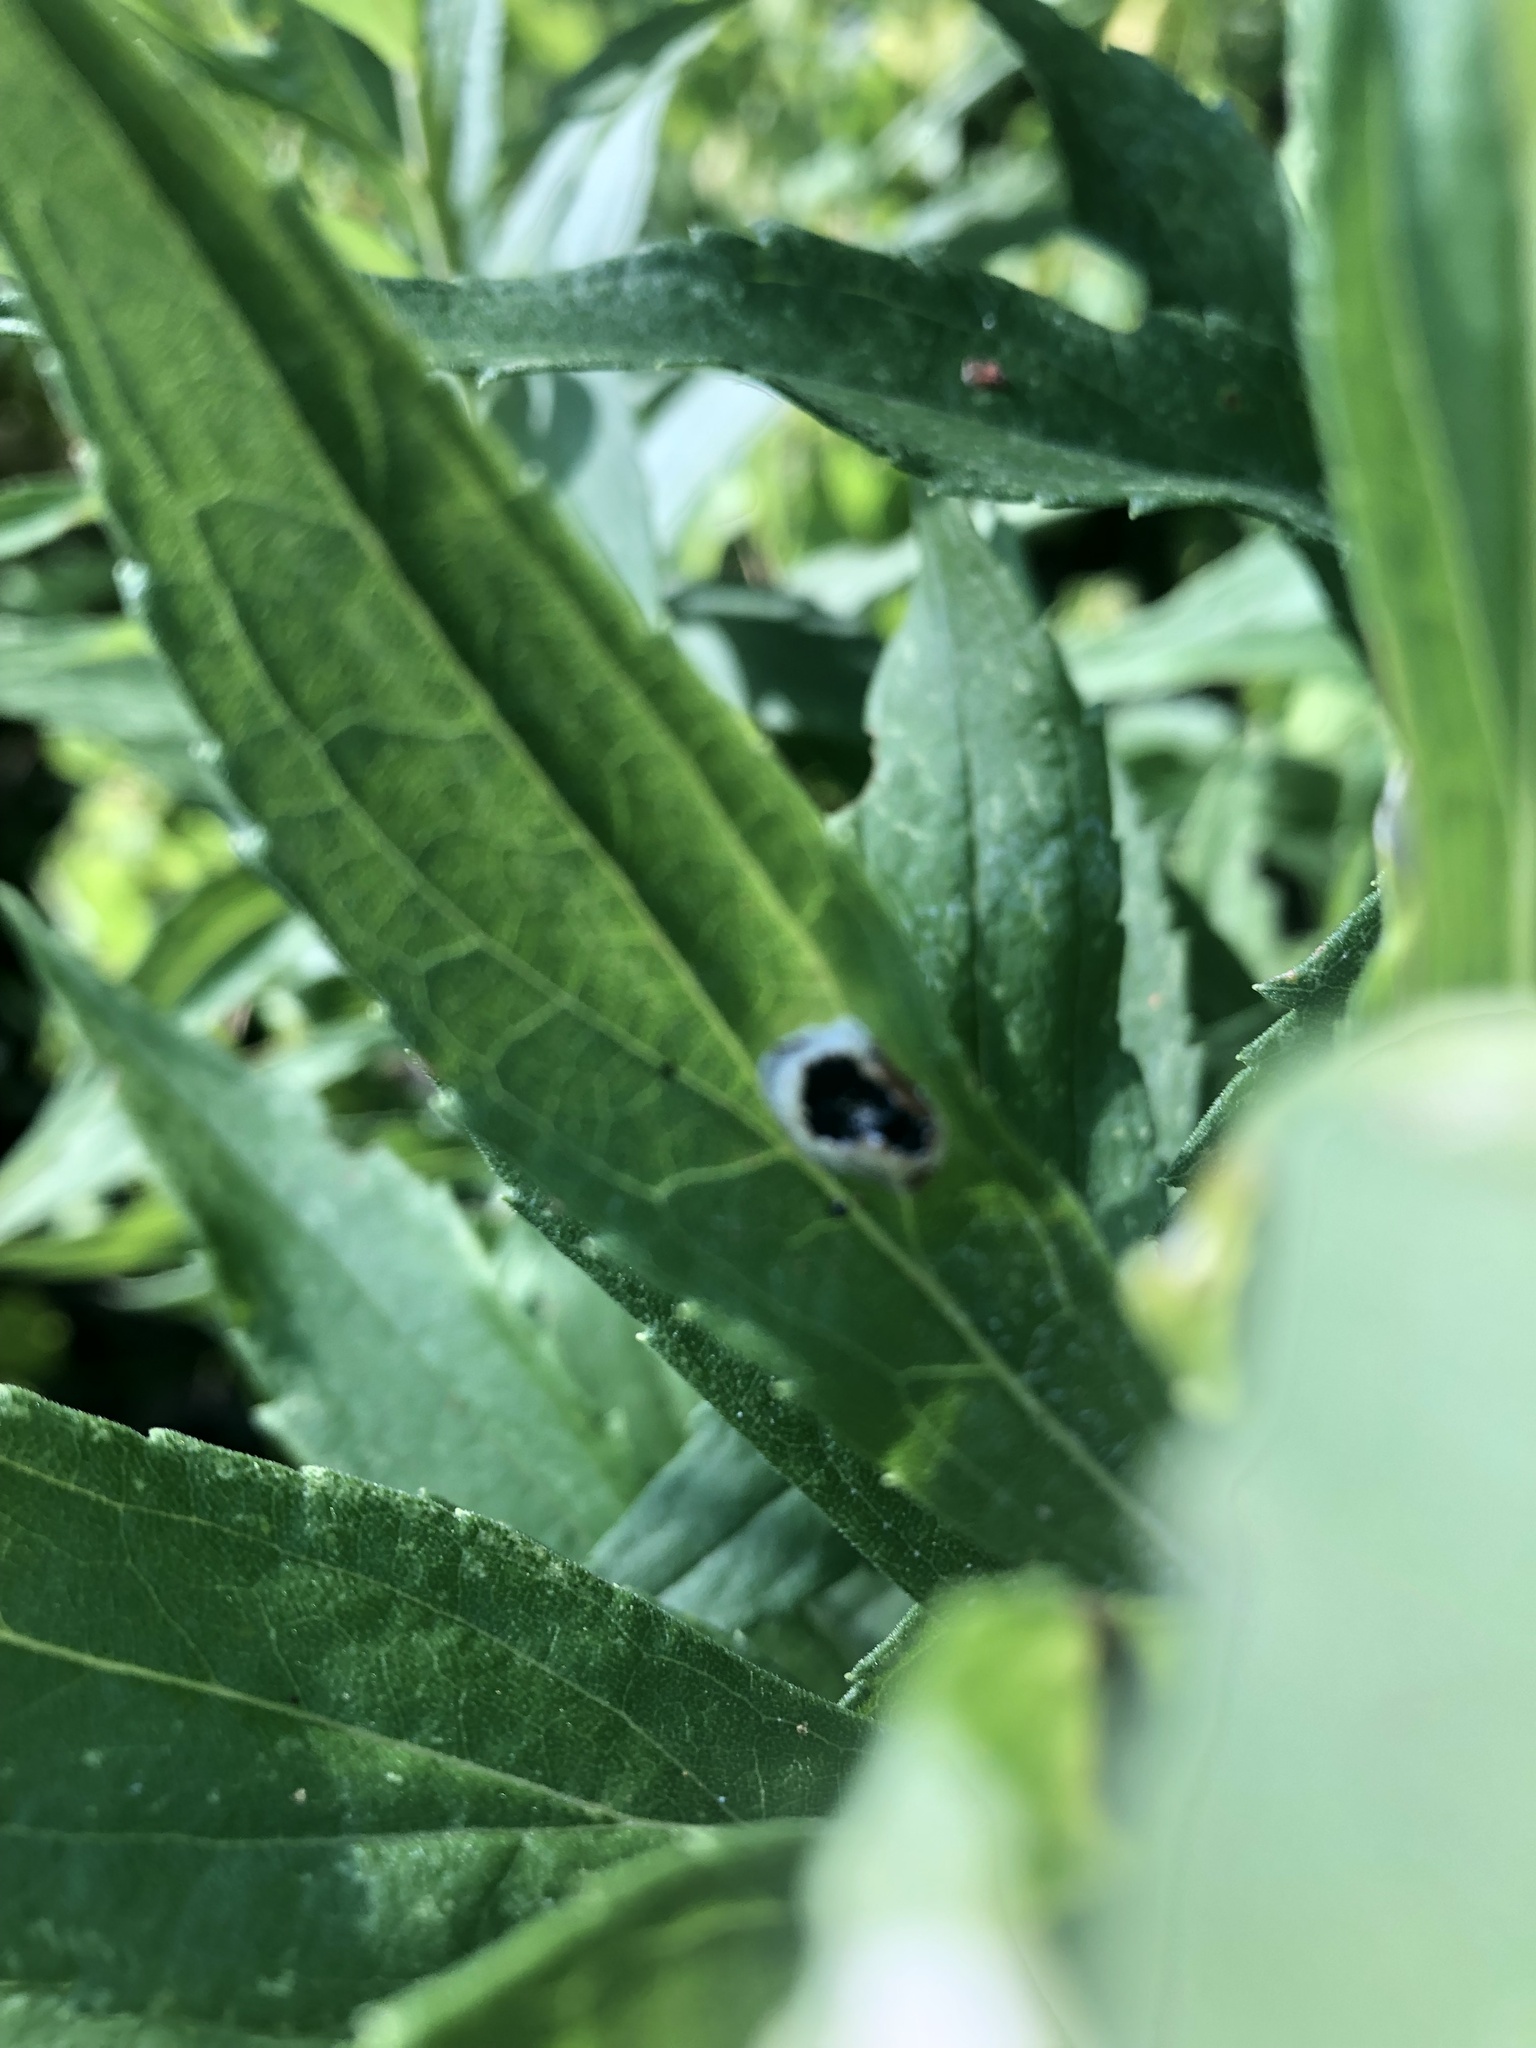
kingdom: Animalia
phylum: Arthropoda
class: Insecta
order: Diptera
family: Cecidomyiidae
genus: Asteromyia
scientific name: Asteromyia carbonifera
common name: Carbonifera goldenrod gall midge
